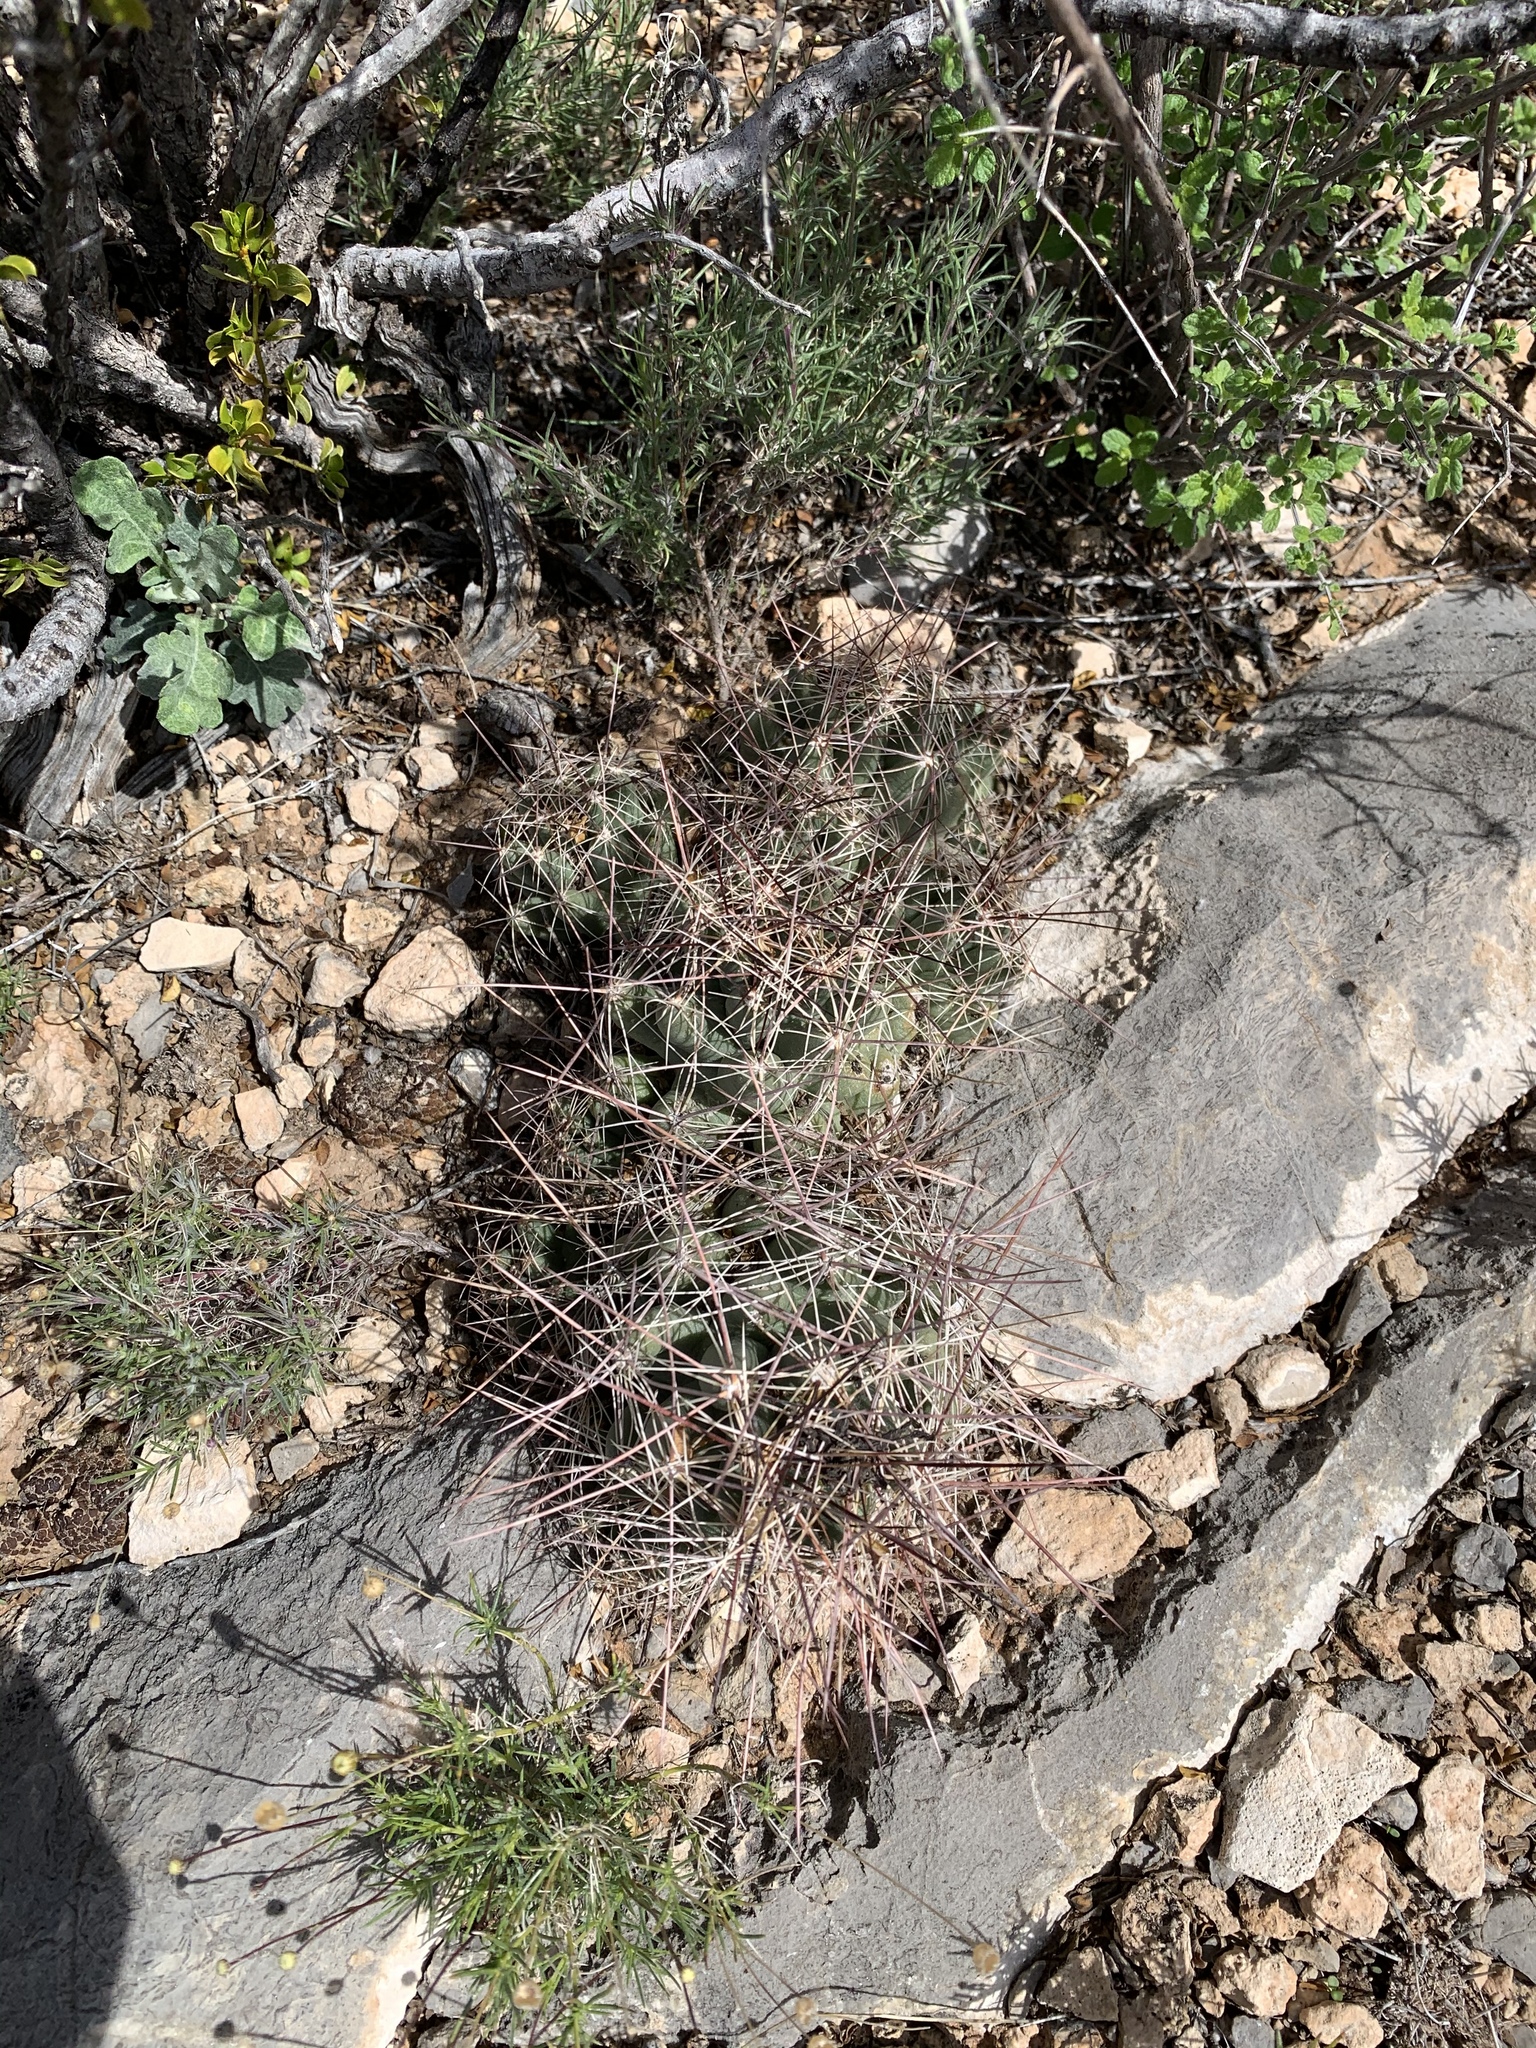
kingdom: Plantae
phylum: Tracheophyta
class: Magnoliopsida
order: Caryophyllales
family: Cactaceae
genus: Coryphantha
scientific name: Coryphantha macromeris
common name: Nipple beehive cactus
